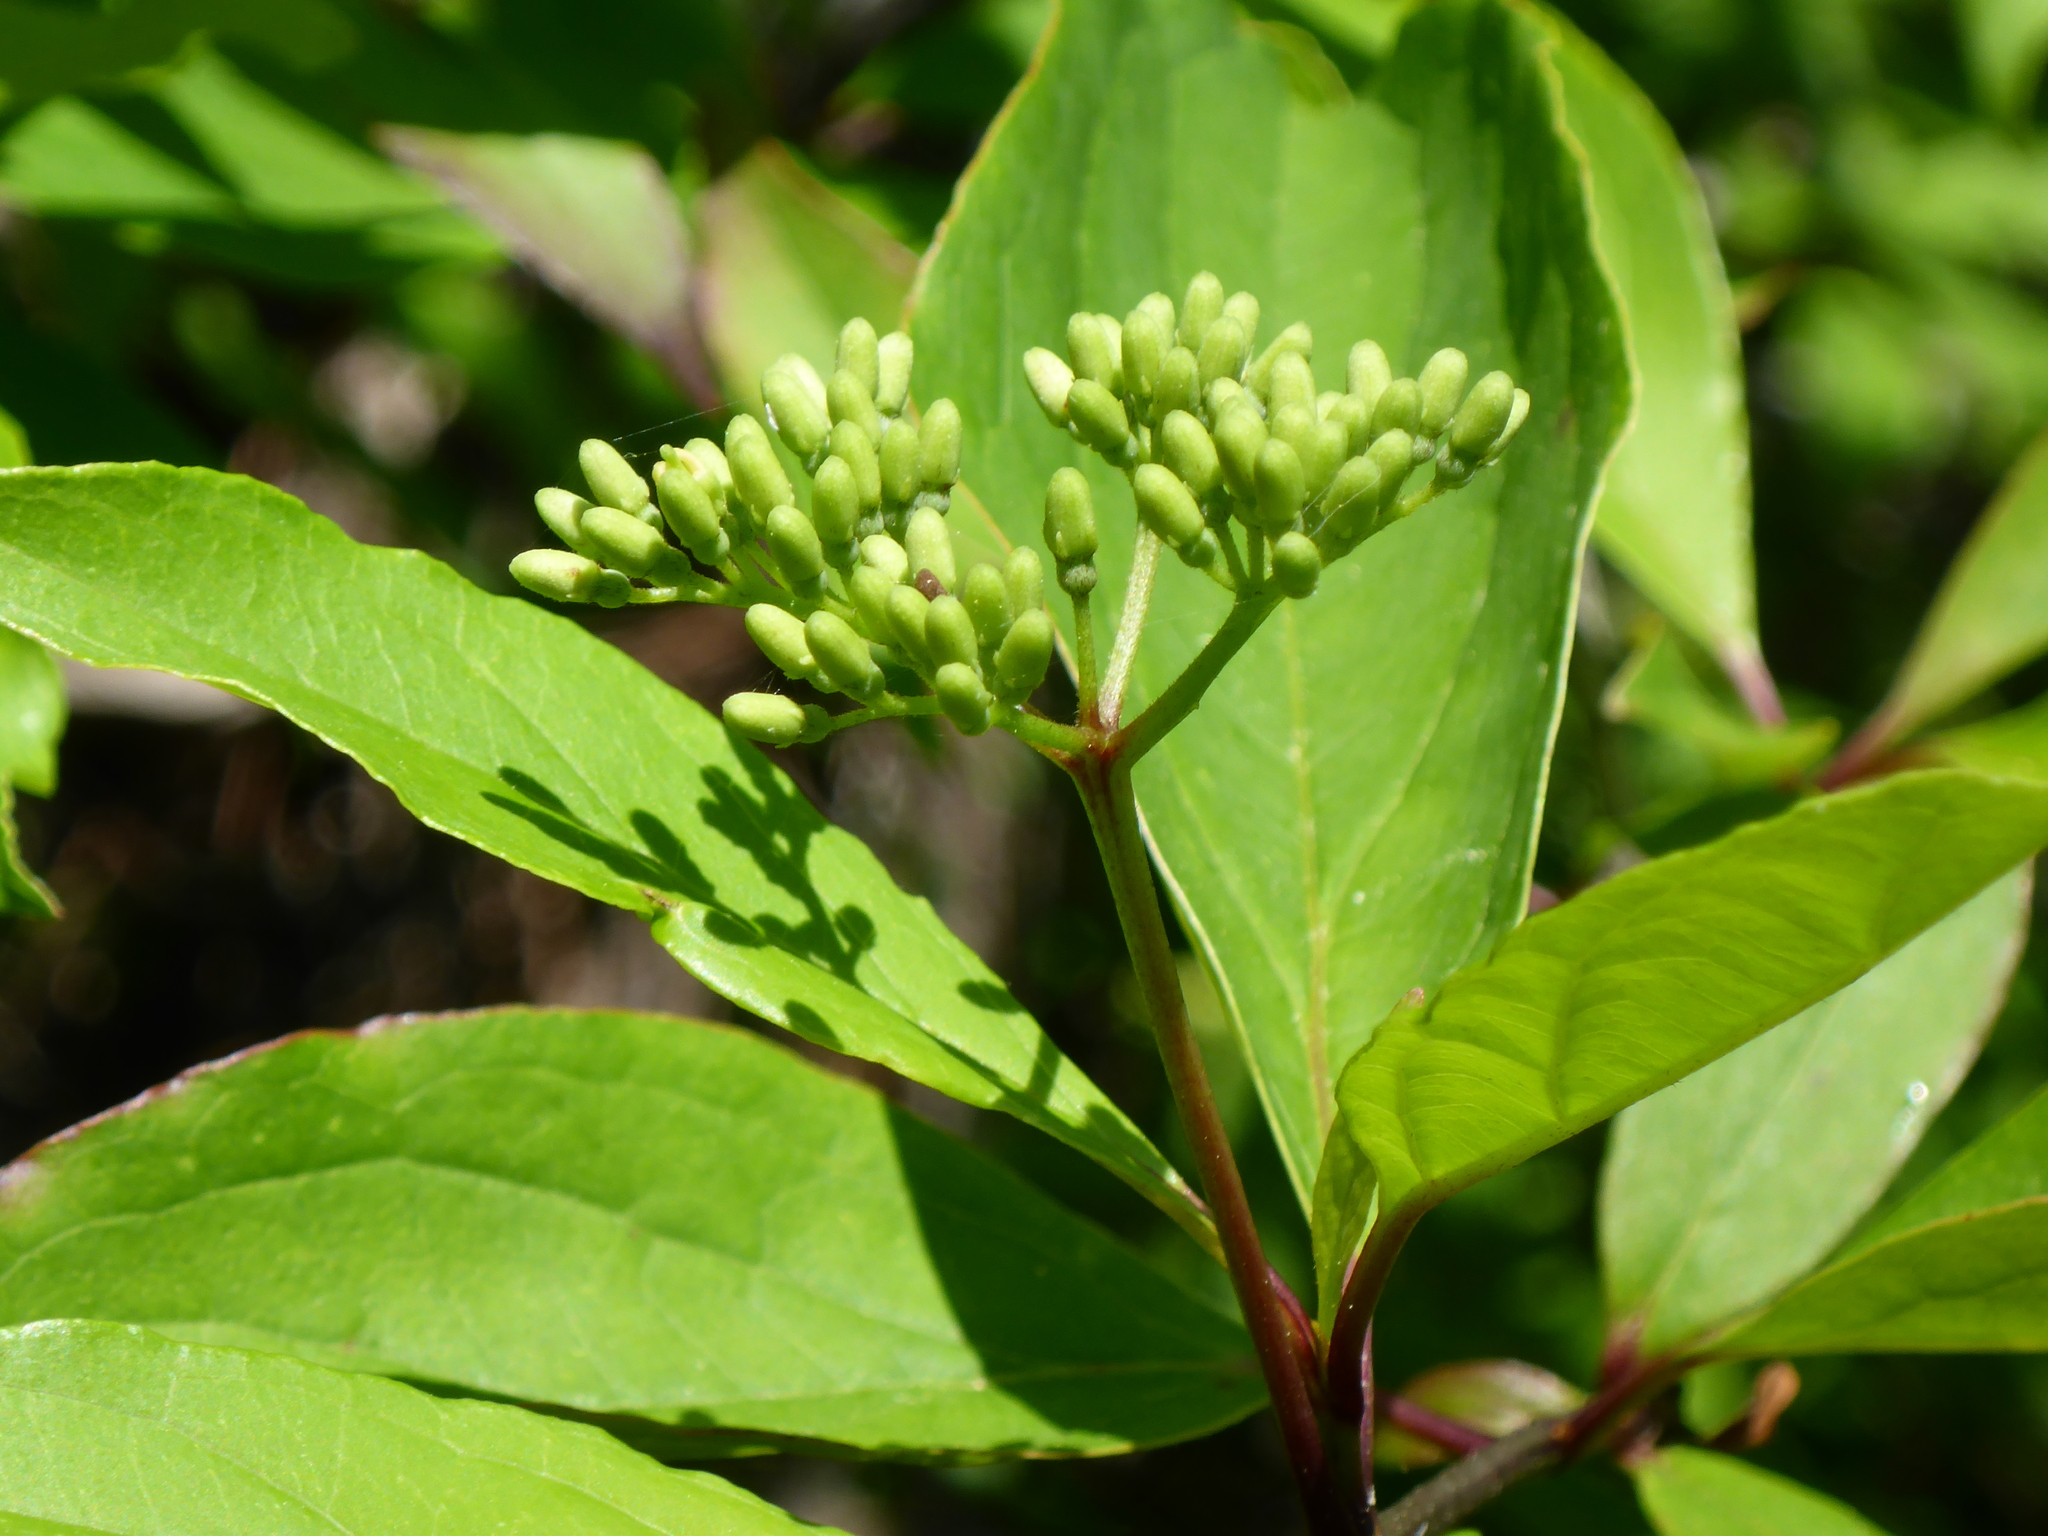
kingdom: Plantae
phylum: Tracheophyta
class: Magnoliopsida
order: Cornales
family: Cornaceae
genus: Cornus
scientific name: Cornus foemina
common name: Swamp dogwood
